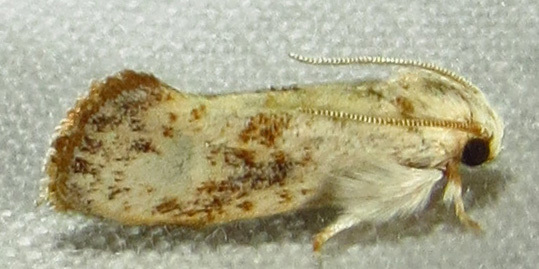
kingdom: Animalia
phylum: Arthropoda
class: Insecta
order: Lepidoptera
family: Tineidae
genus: Acrolophus
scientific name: Acrolophus mycetophagus
